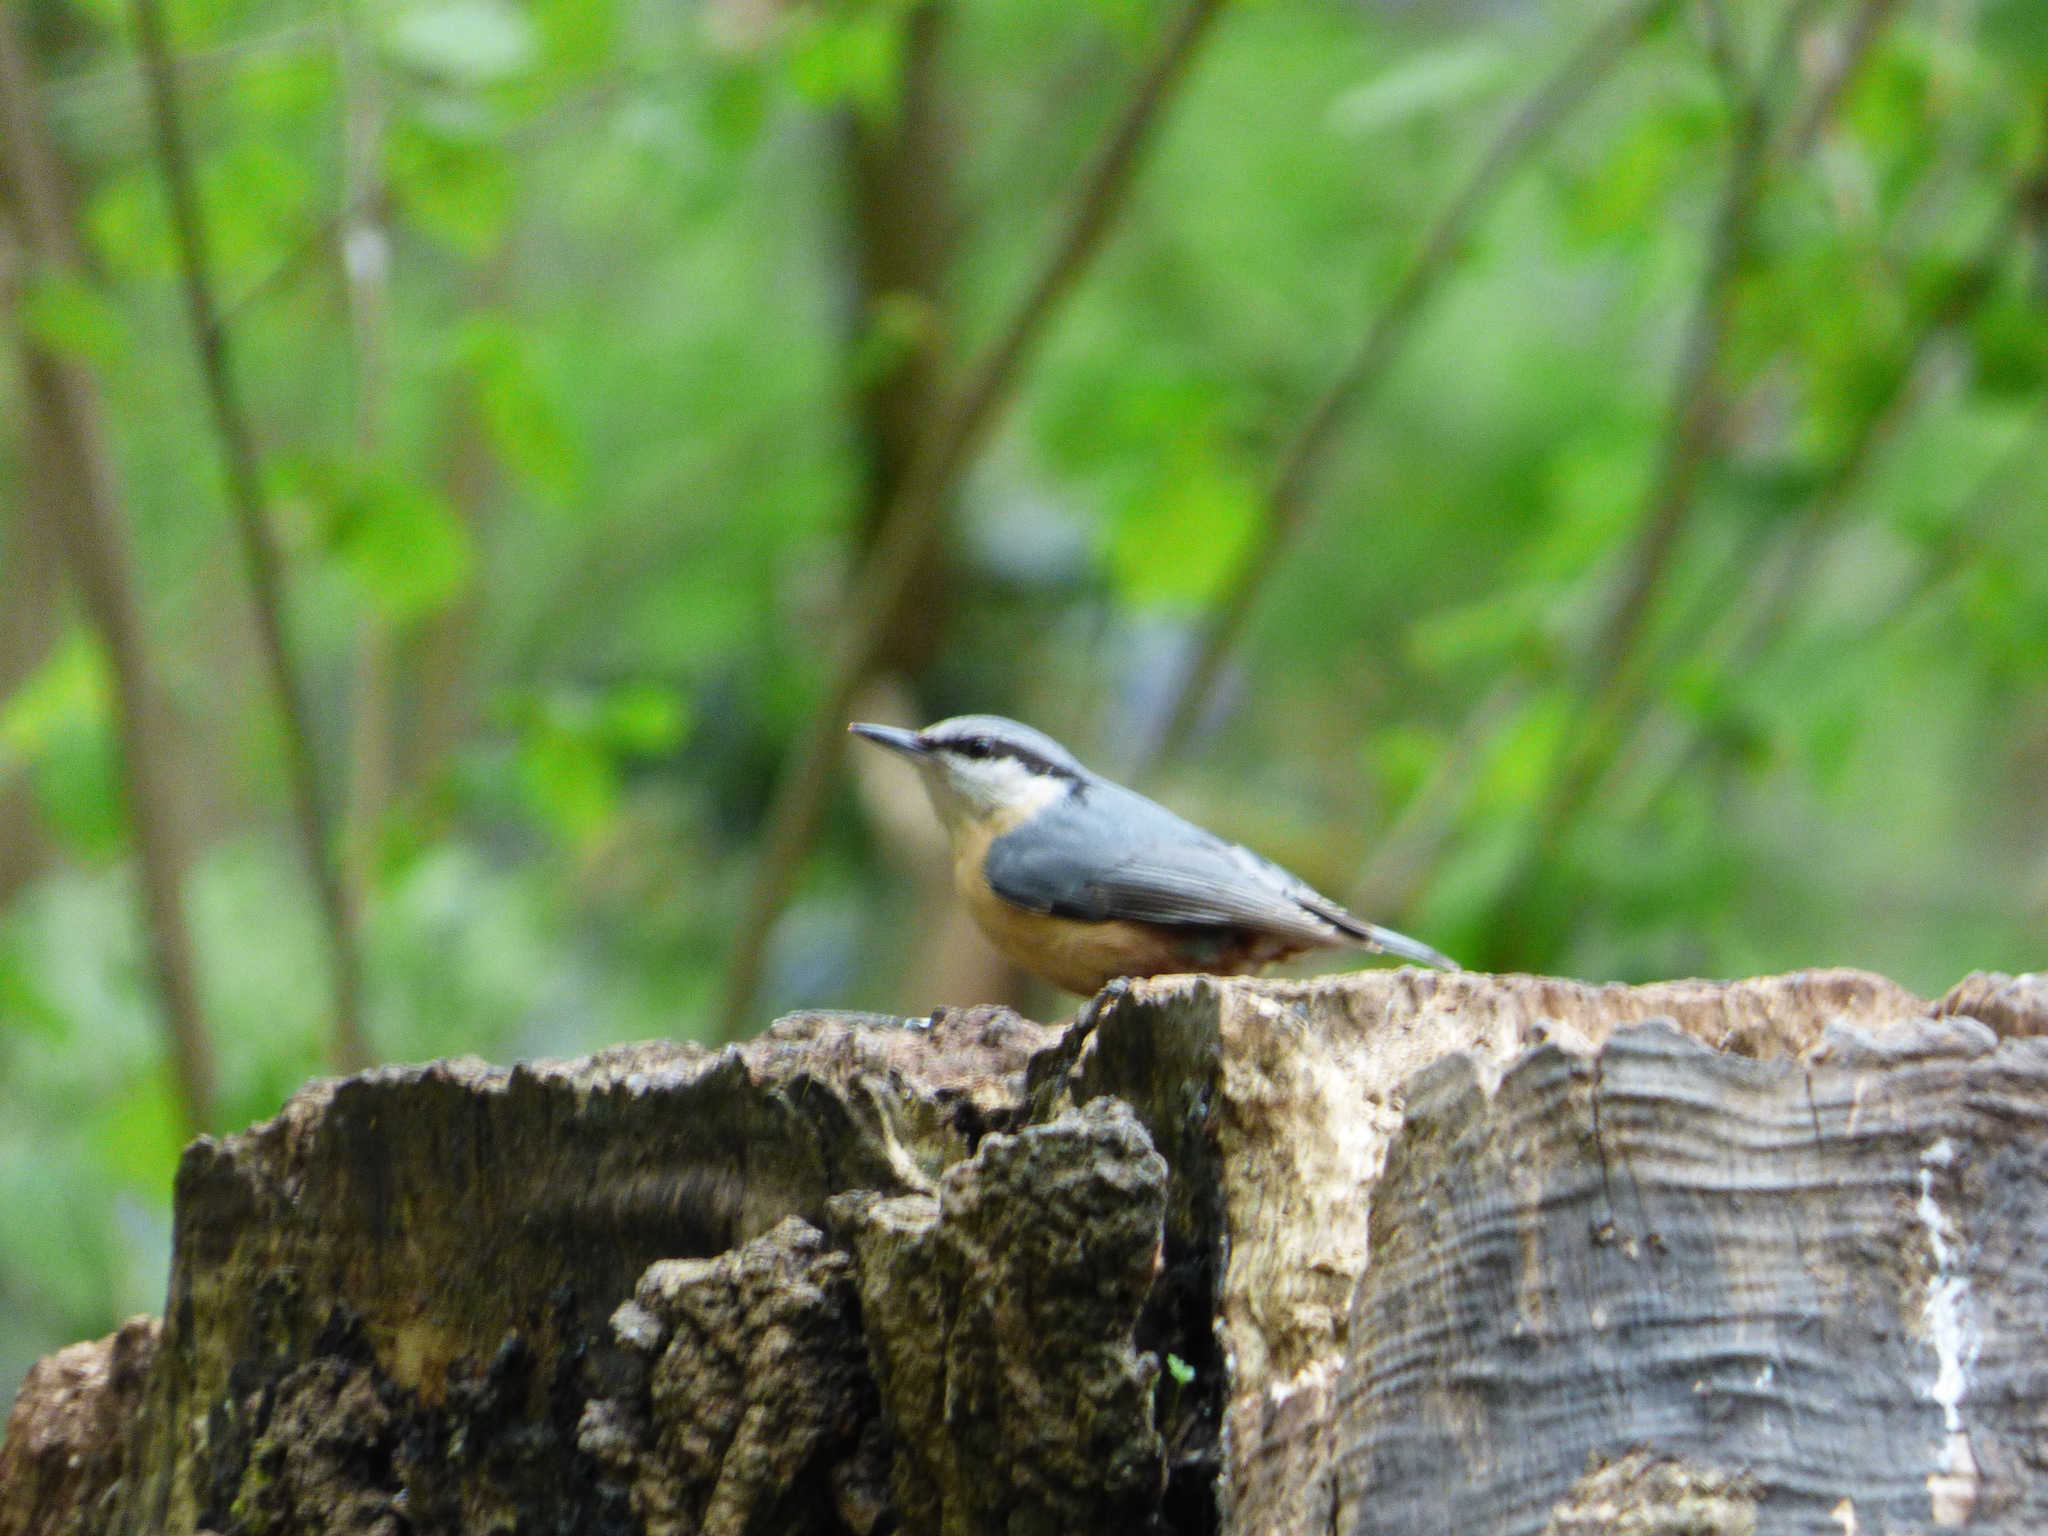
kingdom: Animalia
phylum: Chordata
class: Aves
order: Passeriformes
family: Sittidae
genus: Sitta
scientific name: Sitta europaea
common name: Eurasian nuthatch
